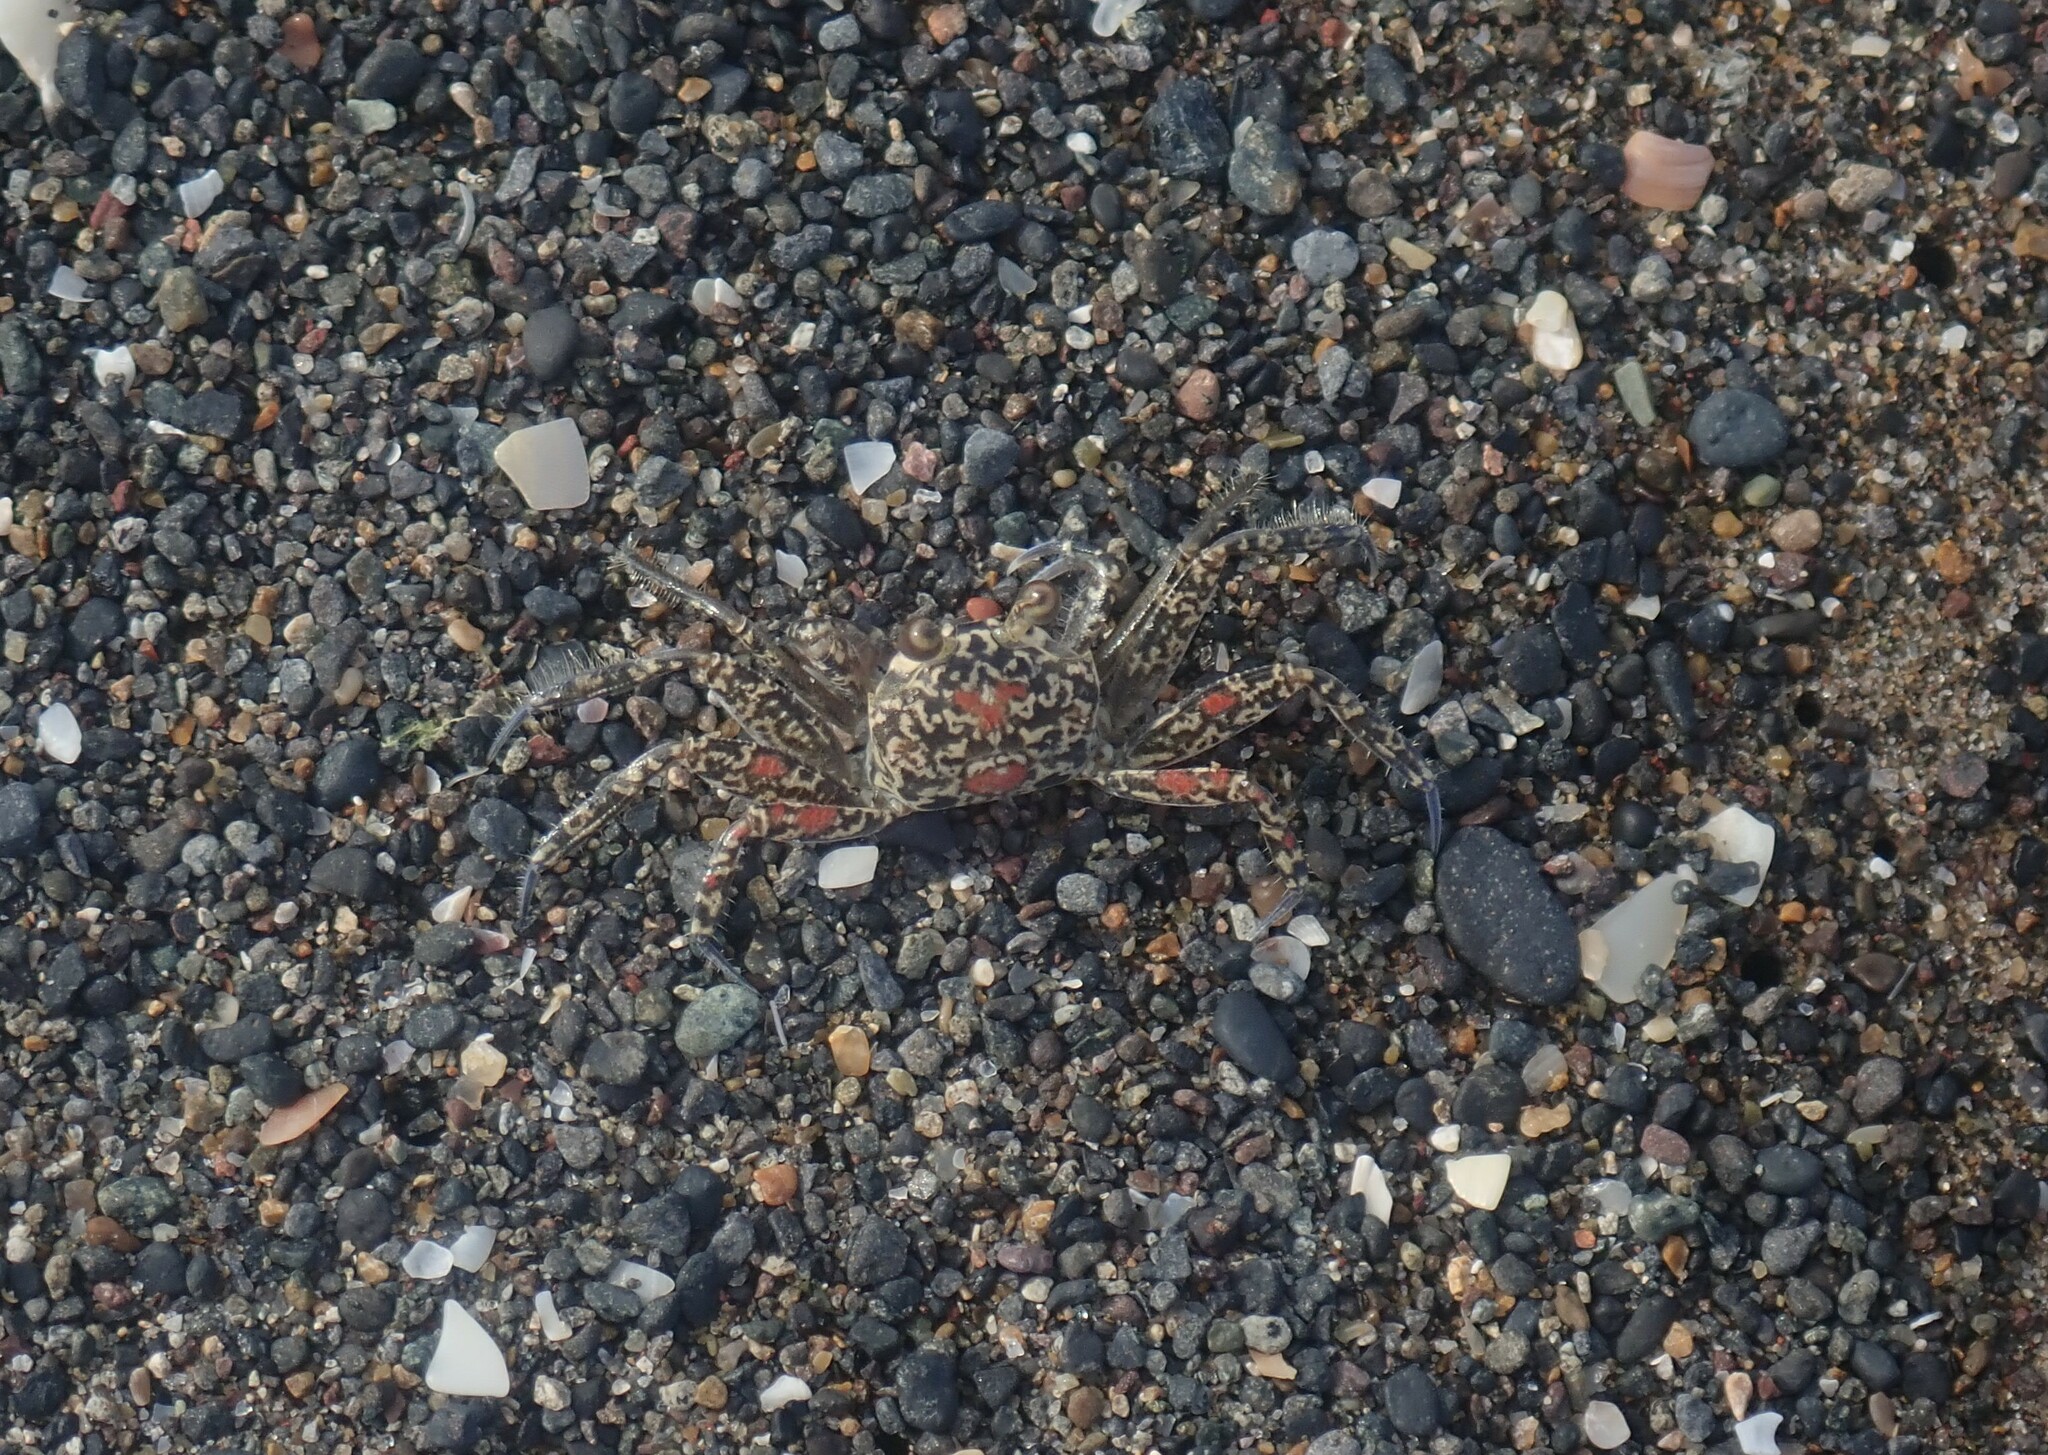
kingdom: Animalia
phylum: Arthropoda
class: Malacostraca
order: Decapoda
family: Ocypodidae
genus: Ocypode
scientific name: Ocypode quadrata
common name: Ghost crab
